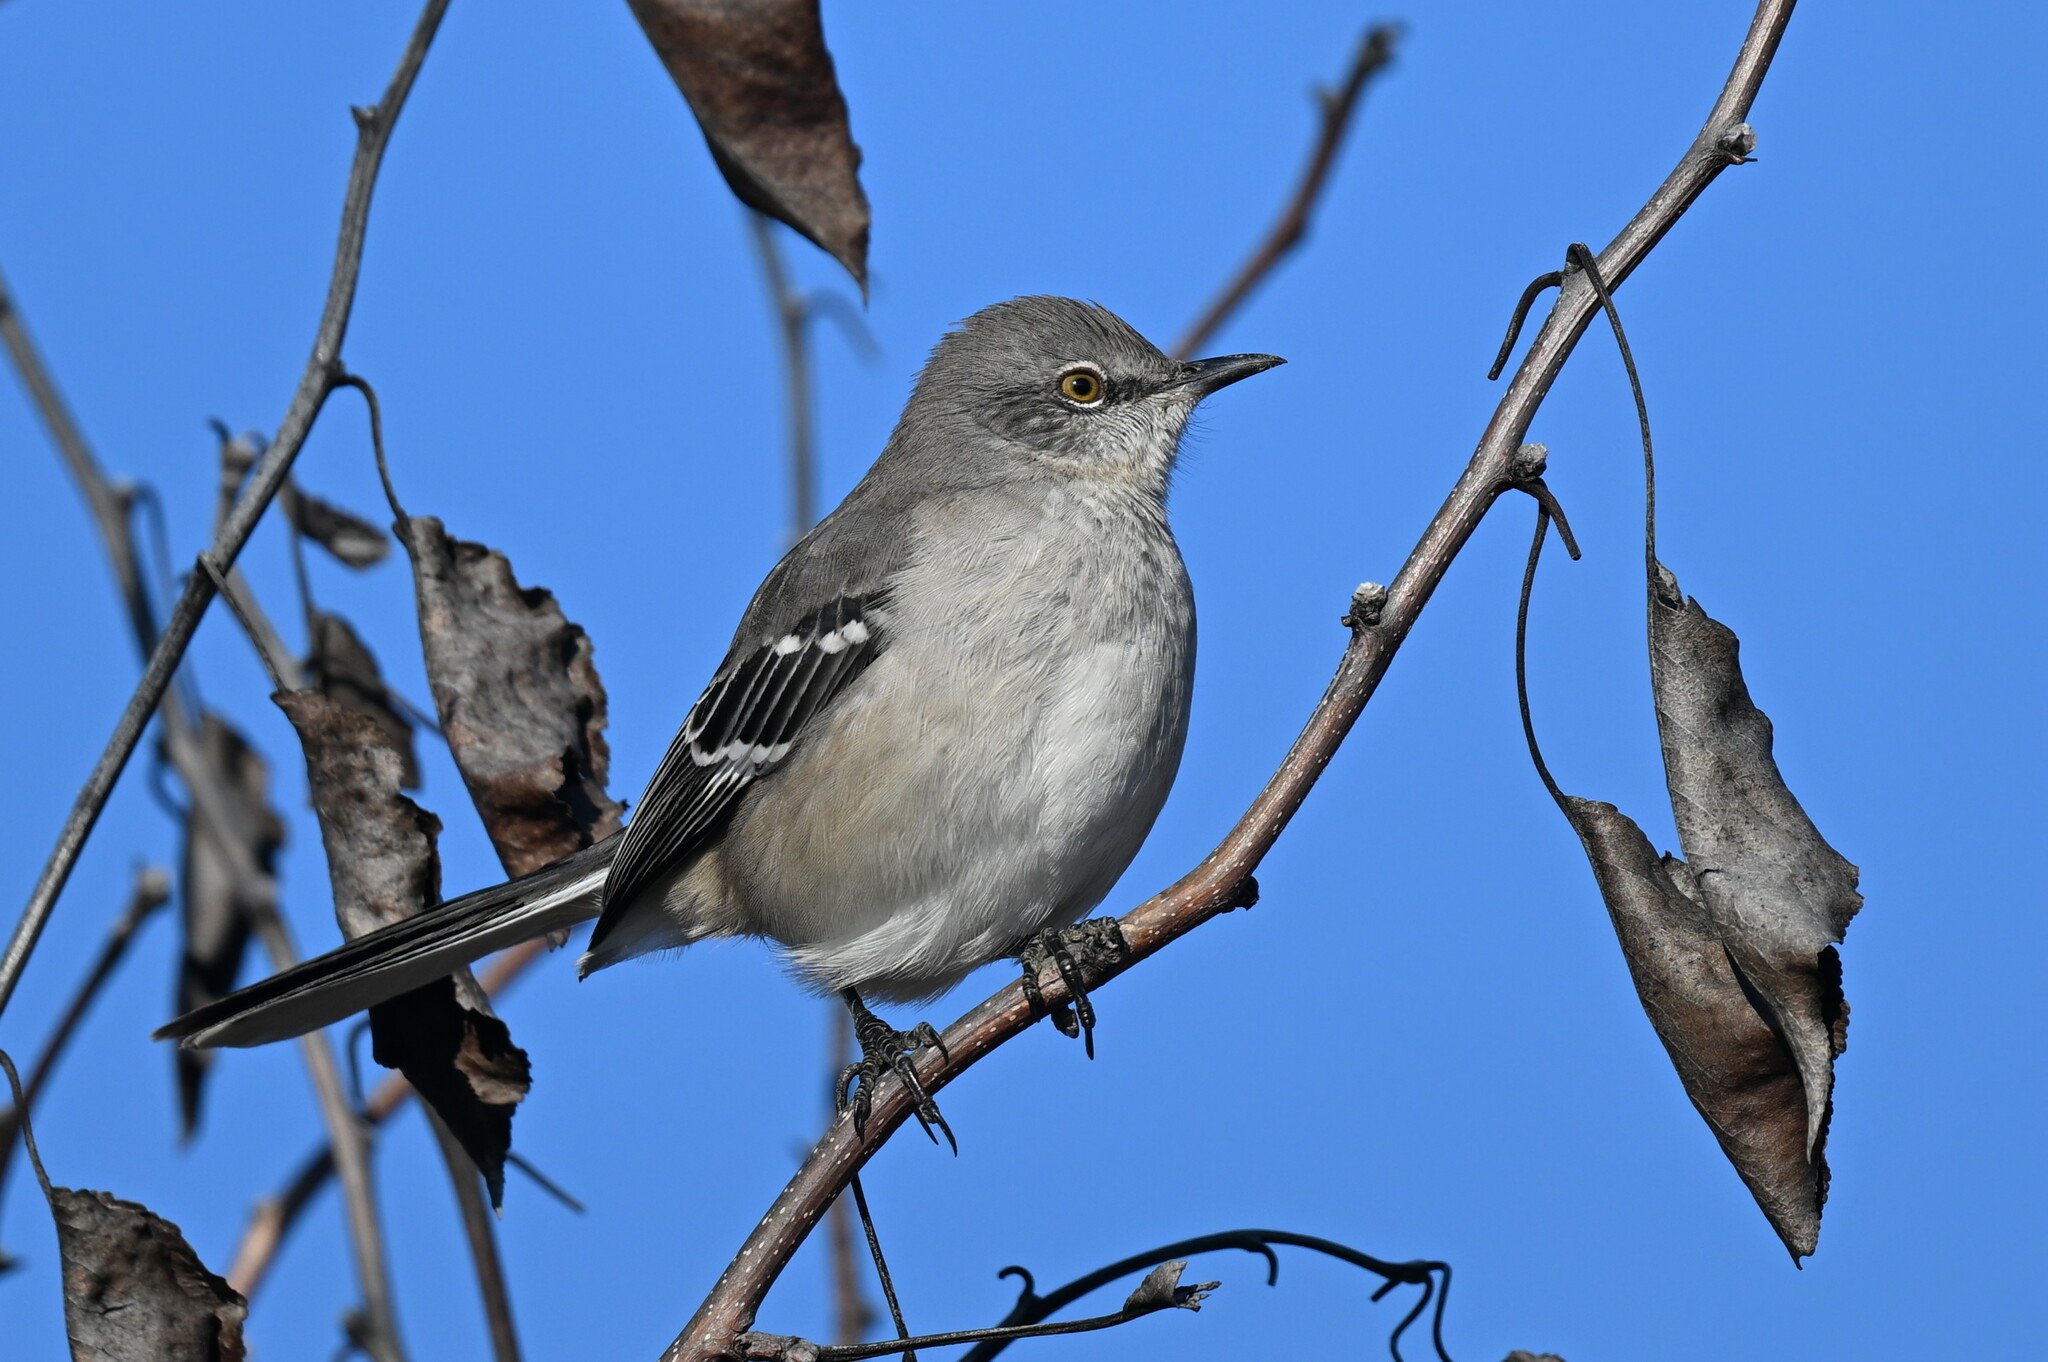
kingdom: Animalia
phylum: Chordata
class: Aves
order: Passeriformes
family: Mimidae
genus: Mimus
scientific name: Mimus polyglottos
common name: Northern mockingbird
